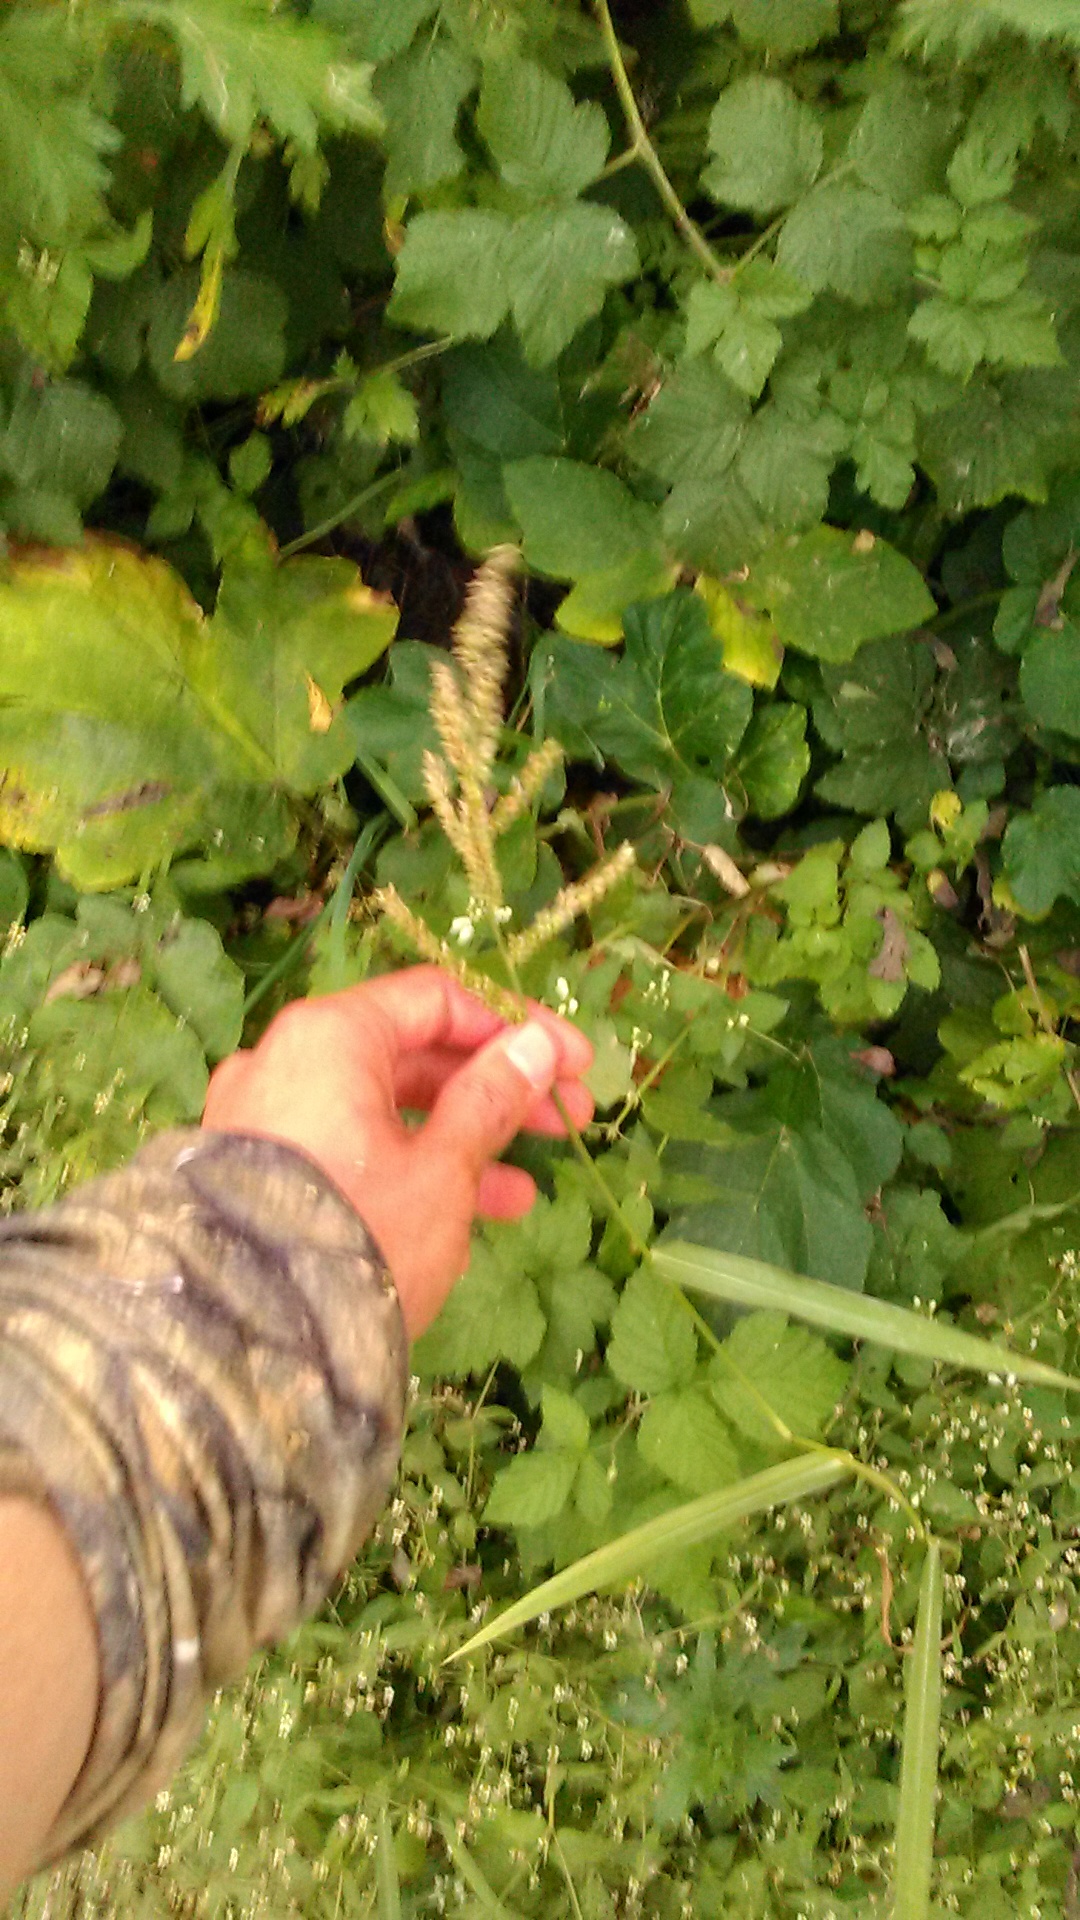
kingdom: Plantae
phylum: Tracheophyta
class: Liliopsida
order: Poales
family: Poaceae
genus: Echinochloa
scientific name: Echinochloa crus-galli
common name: Cockspur
